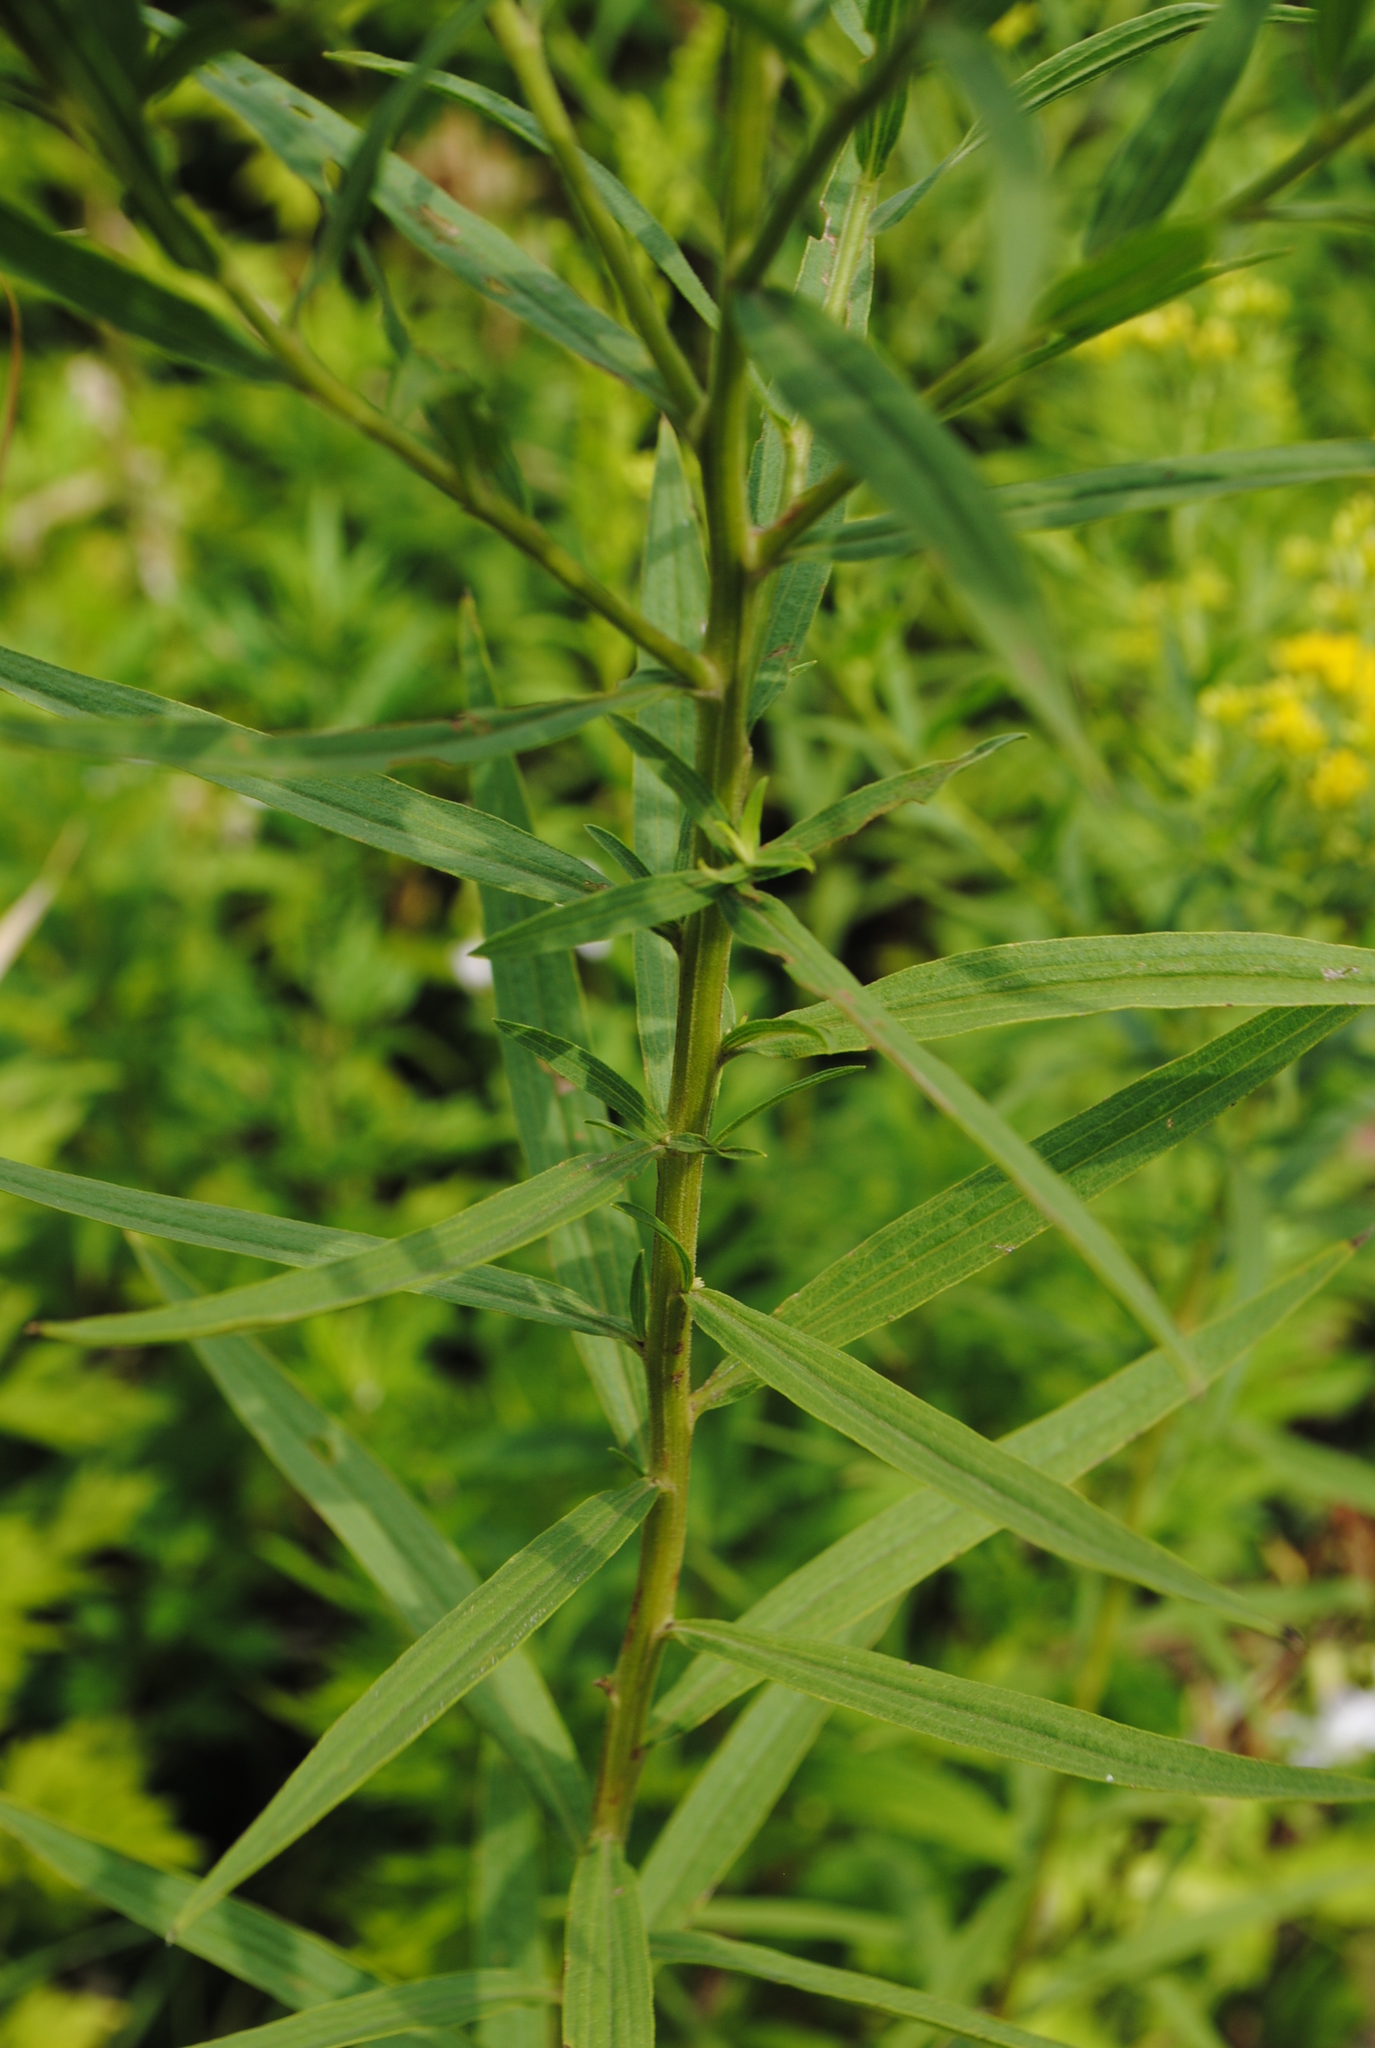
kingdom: Plantae
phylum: Tracheophyta
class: Magnoliopsida
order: Asterales
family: Asteraceae
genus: Euthamia
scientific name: Euthamia graminifolia
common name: Common goldentop
